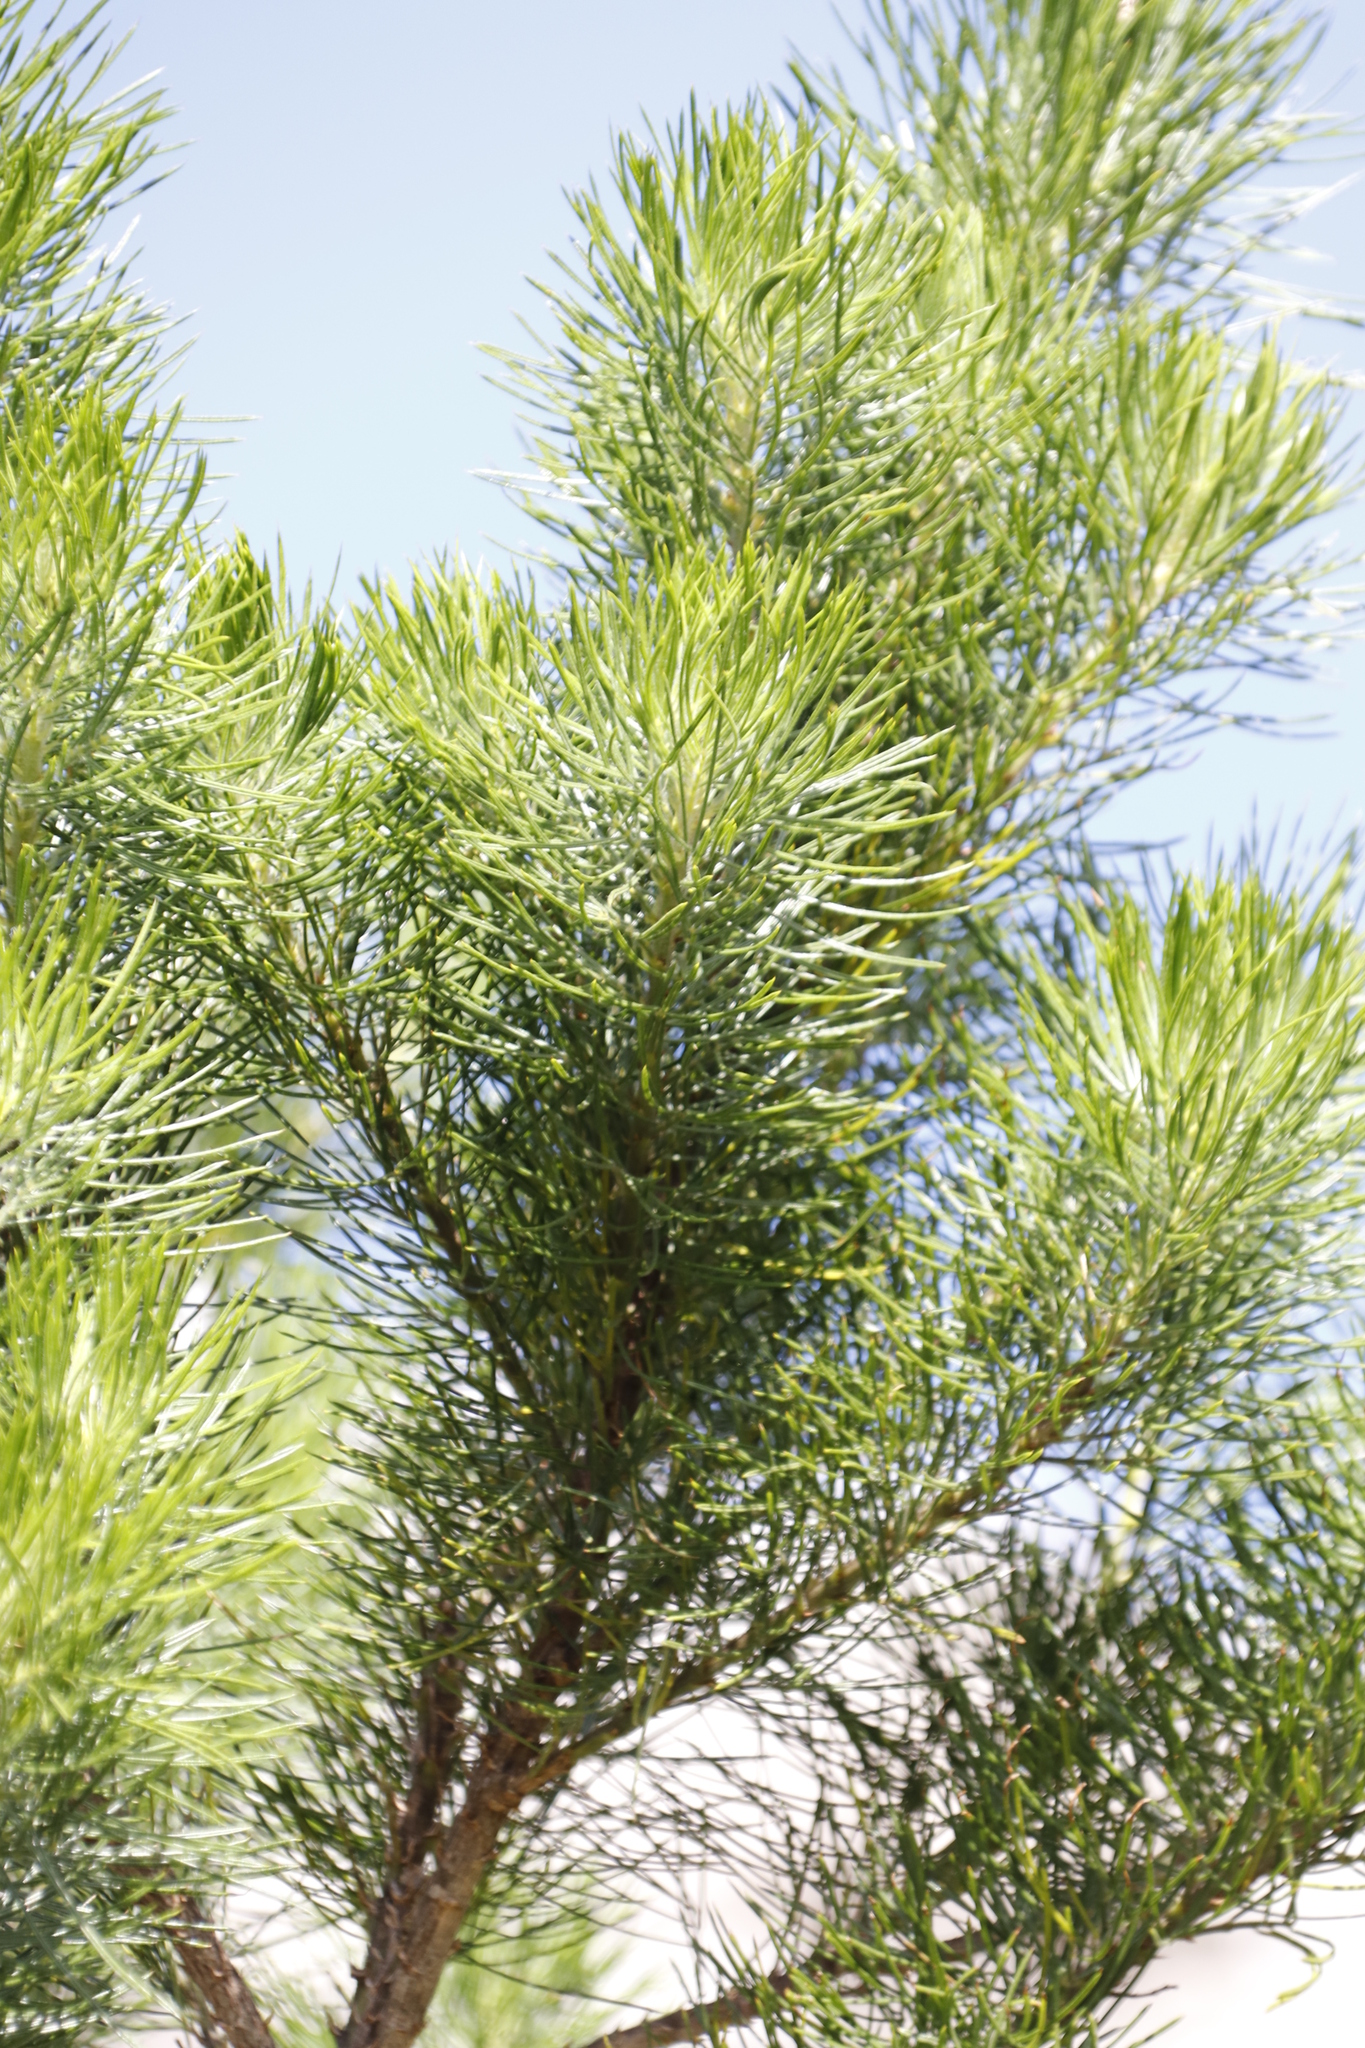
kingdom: Plantae
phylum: Tracheophyta
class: Magnoliopsida
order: Fabales
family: Fabaceae
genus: Psoralea
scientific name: Psoralea pinnata
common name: African scurfpea
